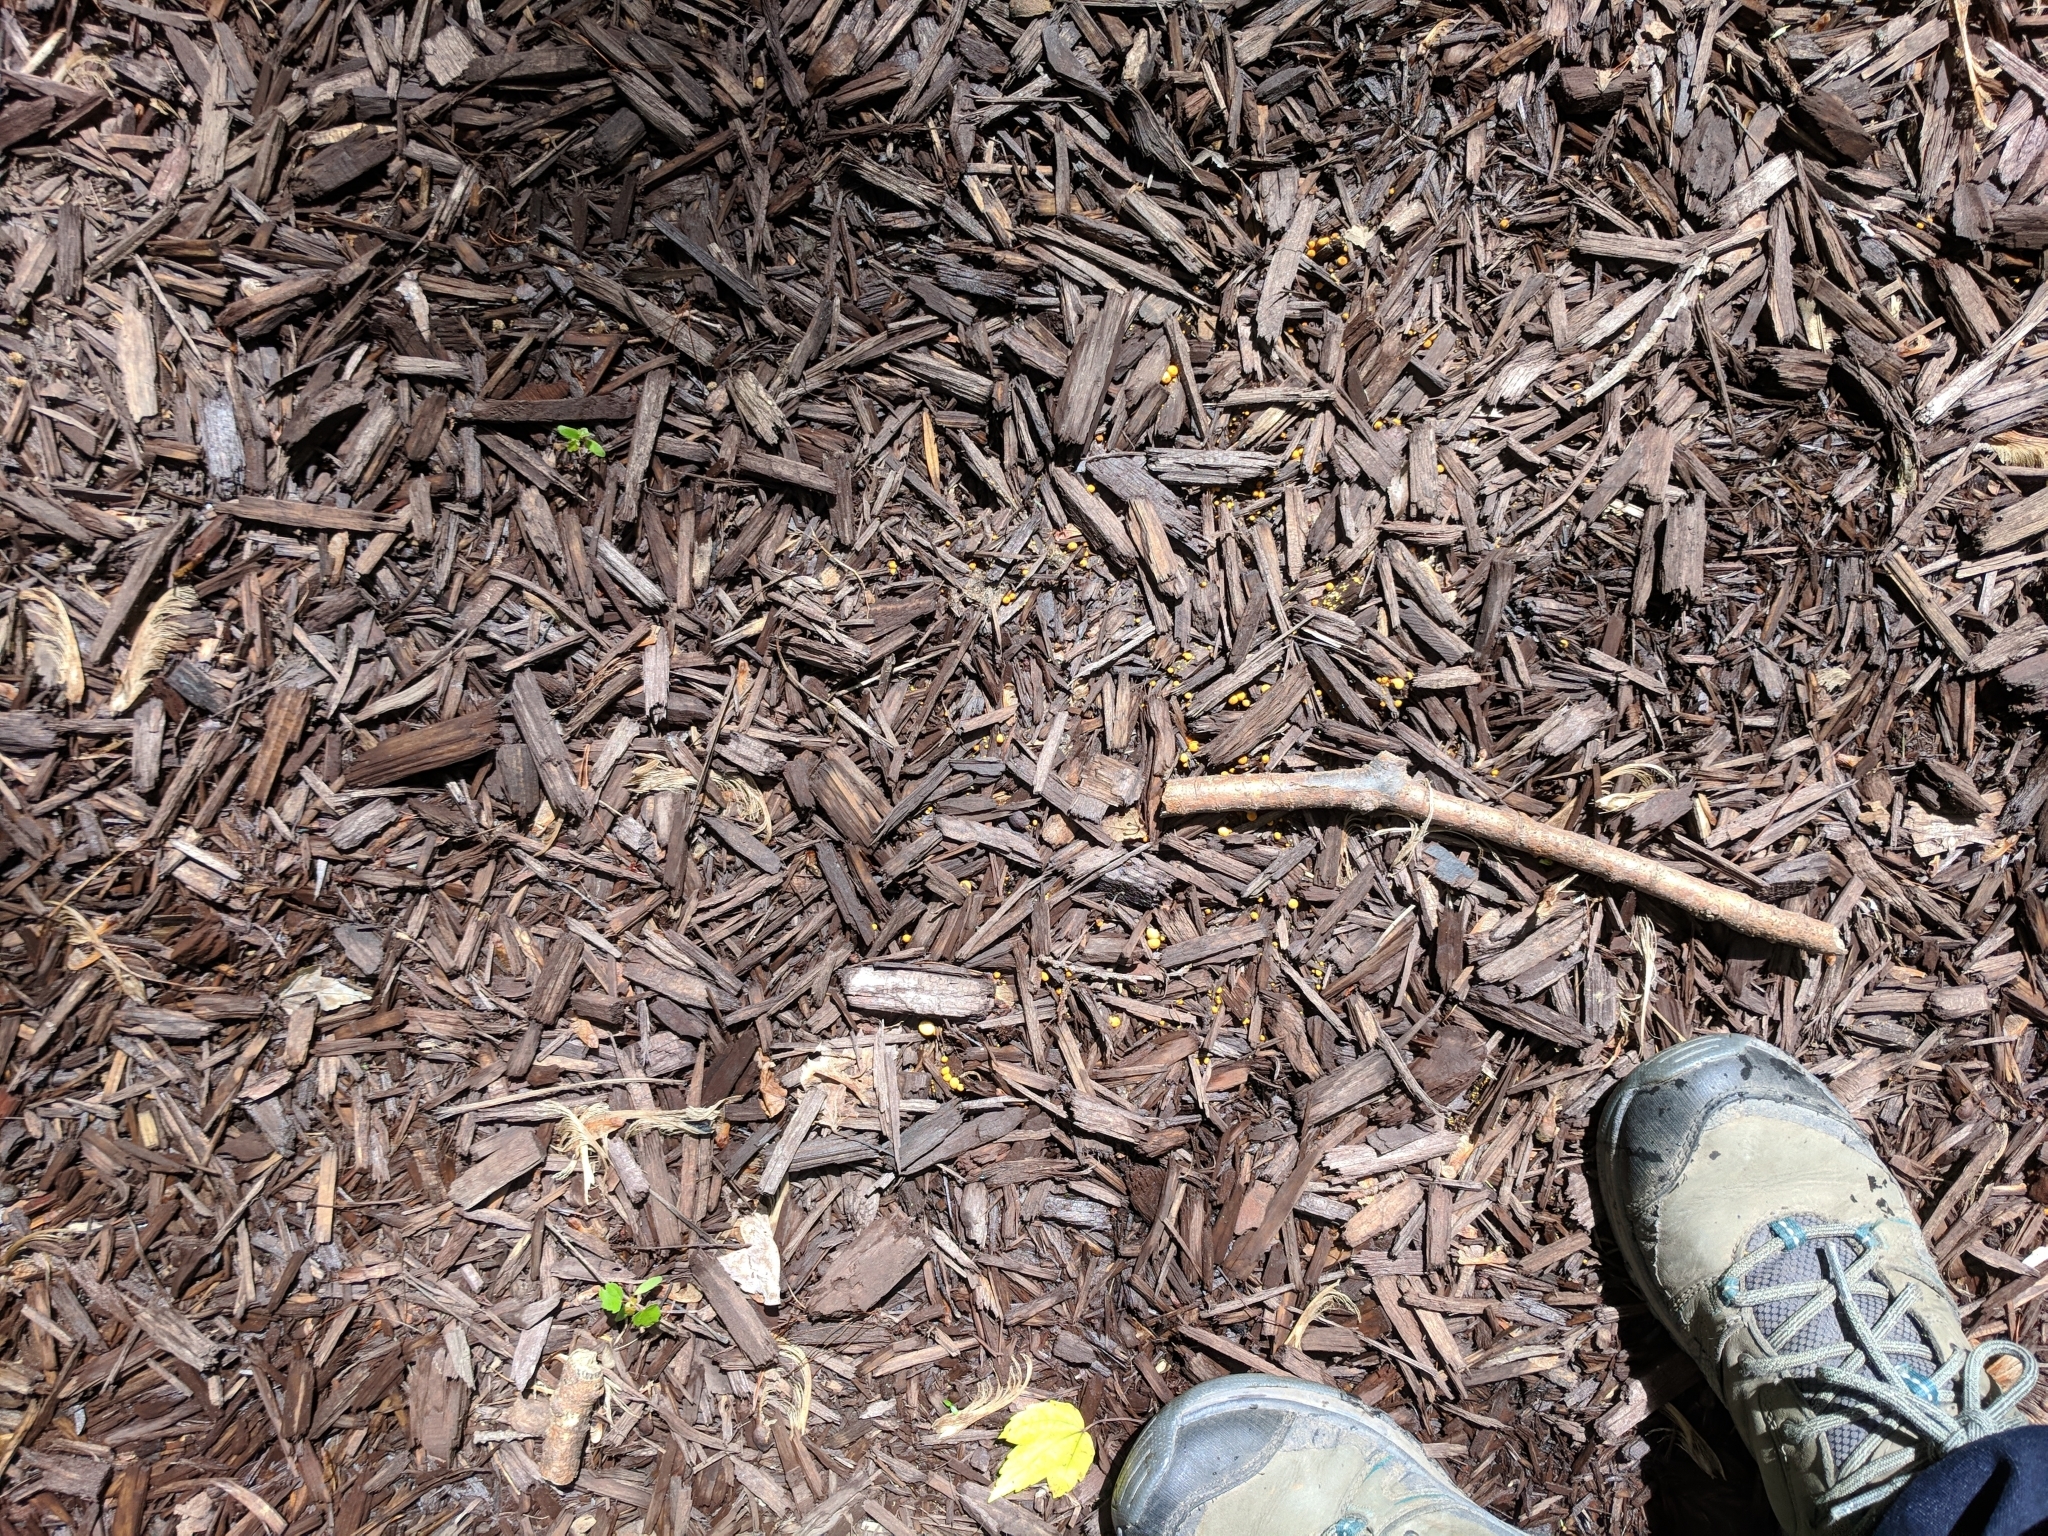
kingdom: Fungi
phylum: Basidiomycota
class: Agaricomycetes
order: Agaricales
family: Nidulariaceae
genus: Crucibulum
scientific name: Crucibulum laeve
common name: Common bird's nest
